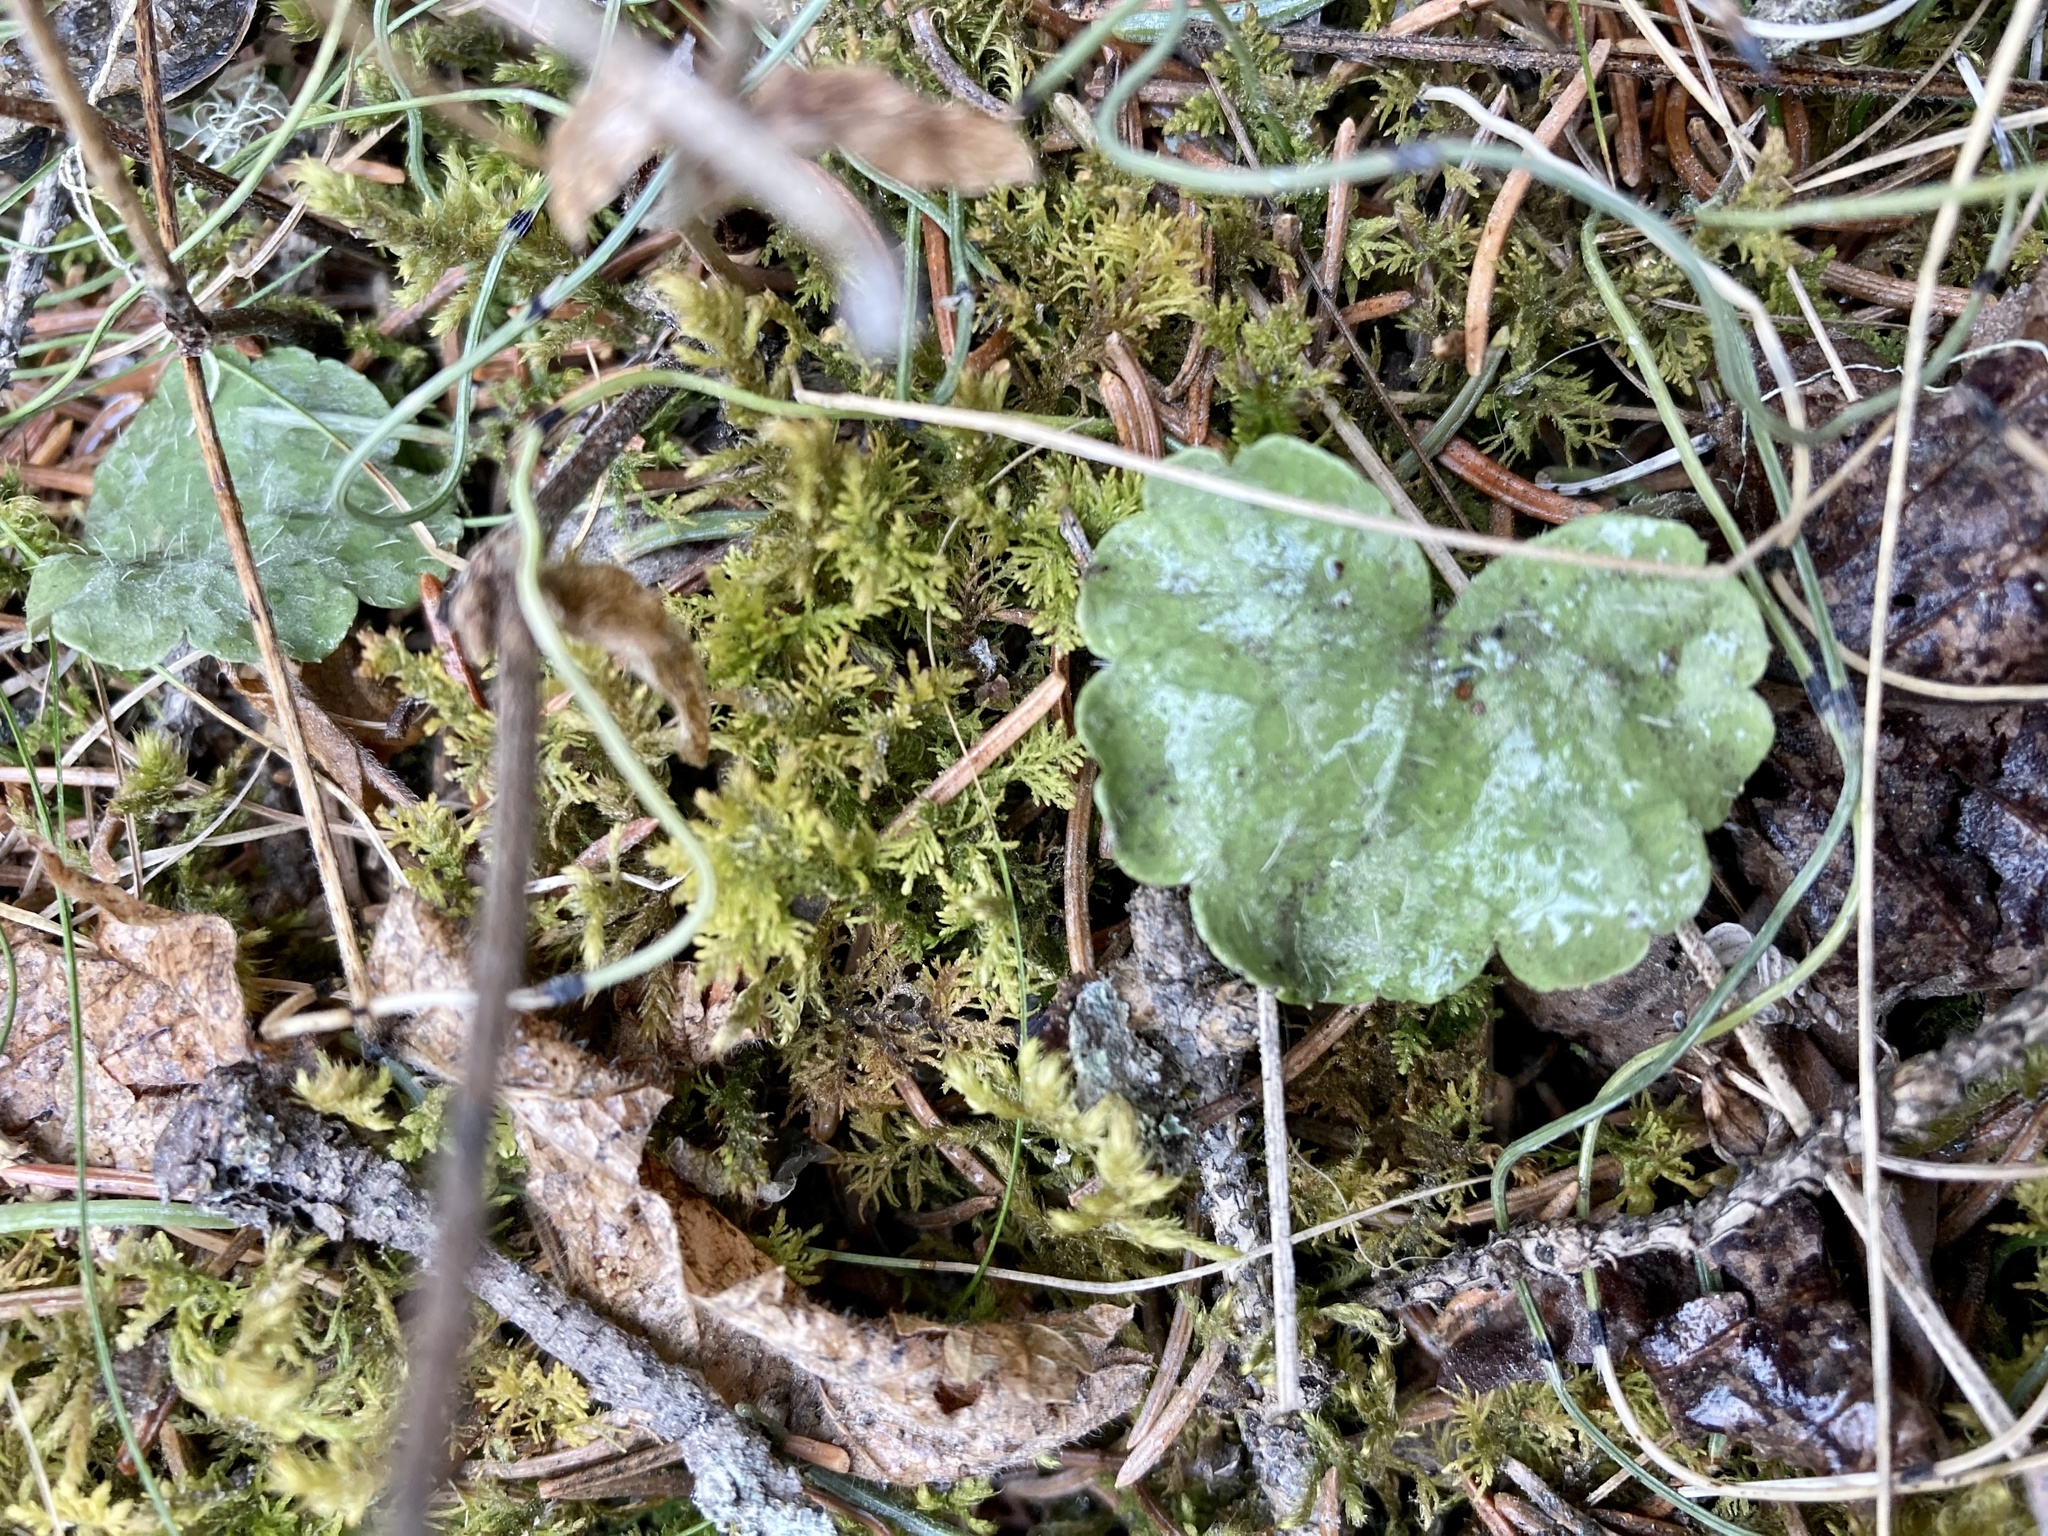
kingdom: Plantae
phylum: Tracheophyta
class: Magnoliopsida
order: Saxifragales
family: Saxifragaceae
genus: Mitella
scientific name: Mitella nuda
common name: Bare-stemmed bishop's-cap
